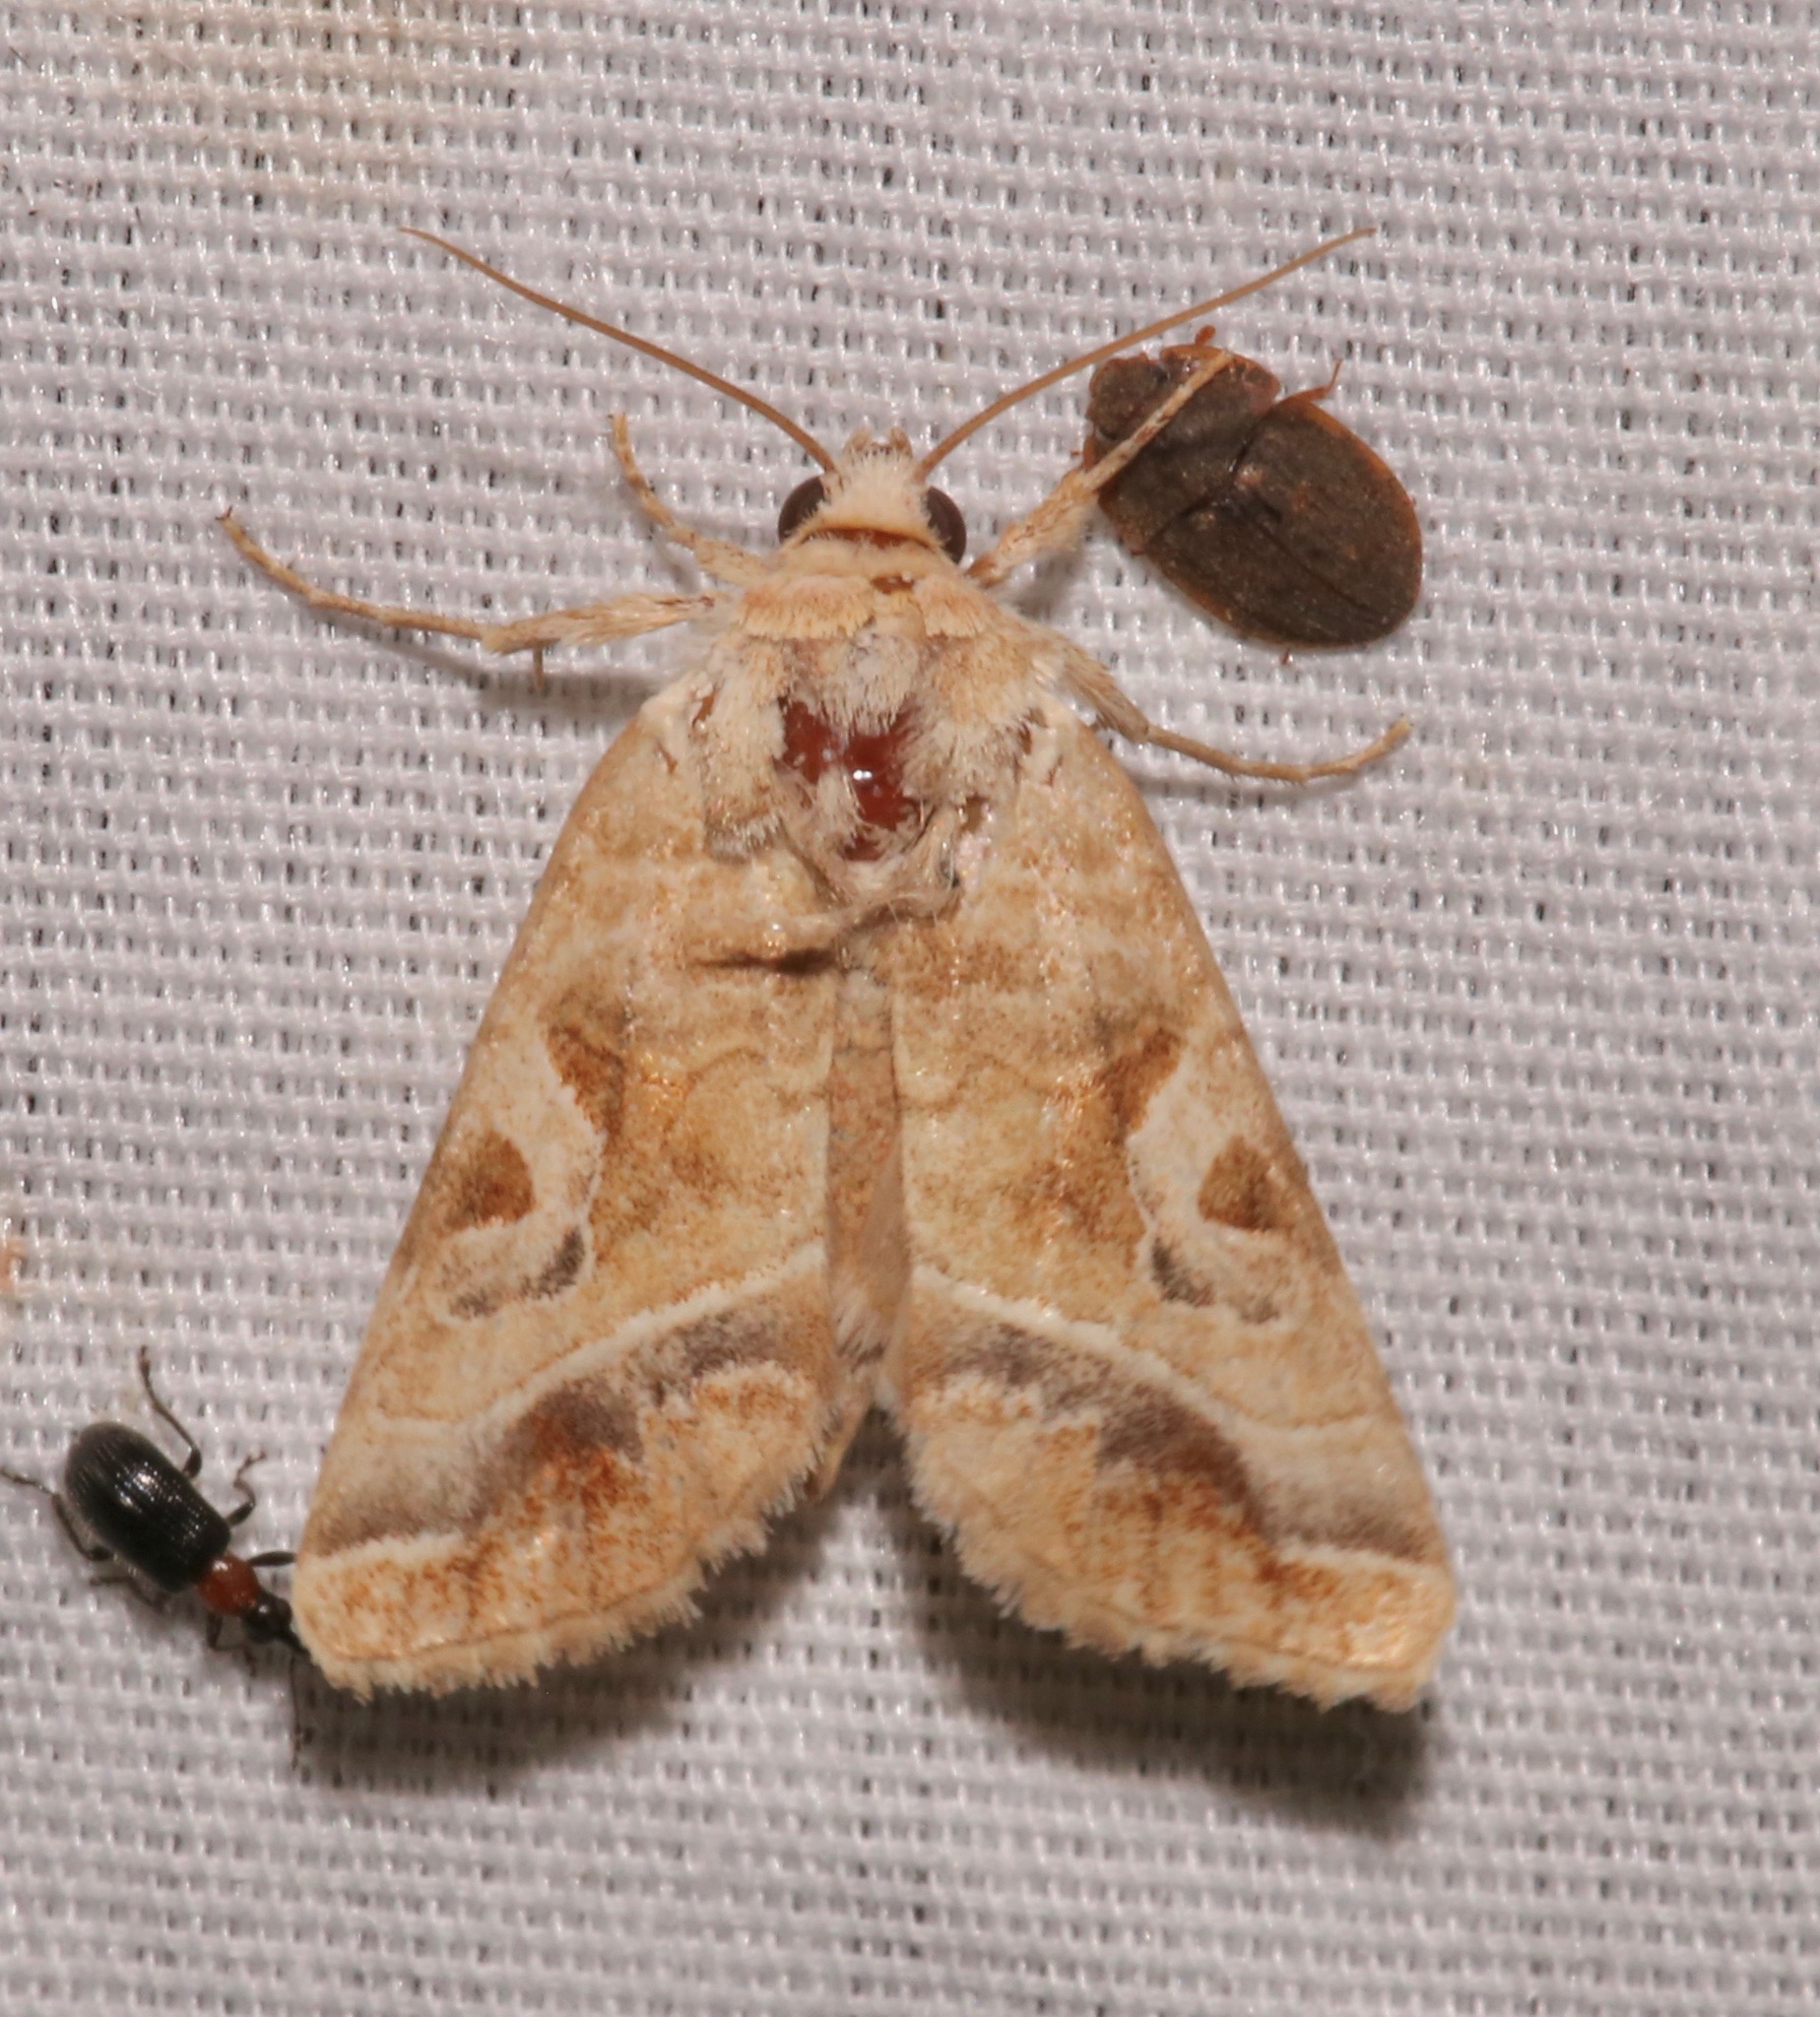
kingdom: Animalia
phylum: Arthropoda
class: Insecta
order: Lepidoptera
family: Noctuidae
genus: Hexorthodes
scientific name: Hexorthodes accurata
